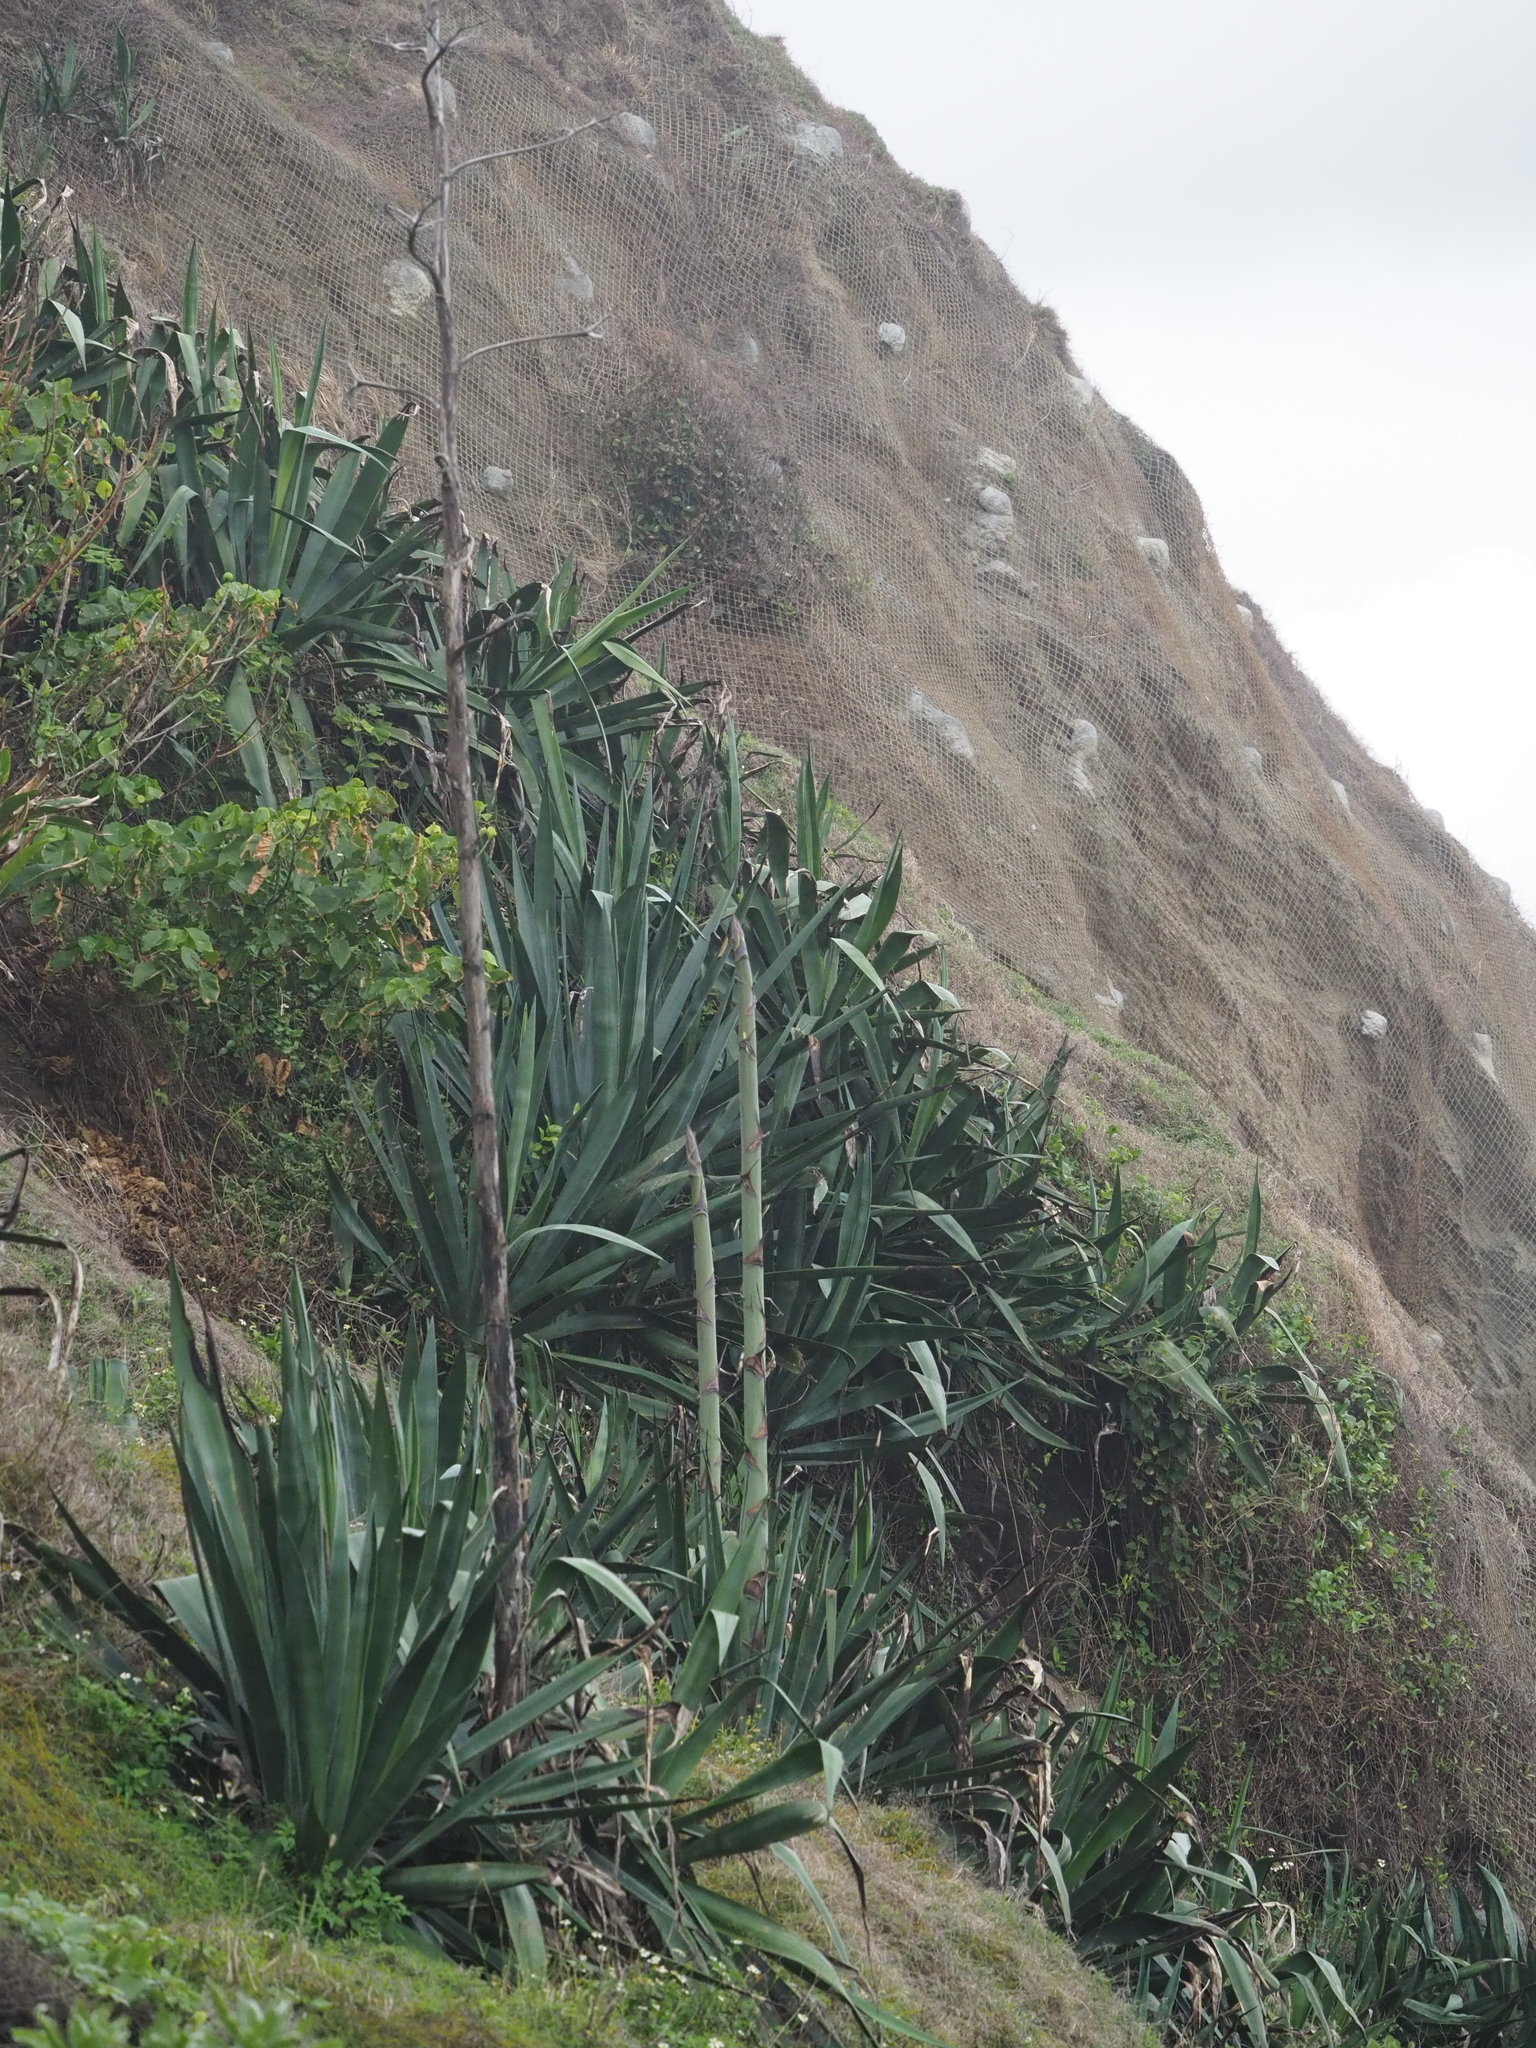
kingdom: Plantae
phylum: Tracheophyta
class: Liliopsida
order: Asparagales
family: Asparagaceae
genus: Agave
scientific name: Agave sisalana
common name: Sisal hemp
